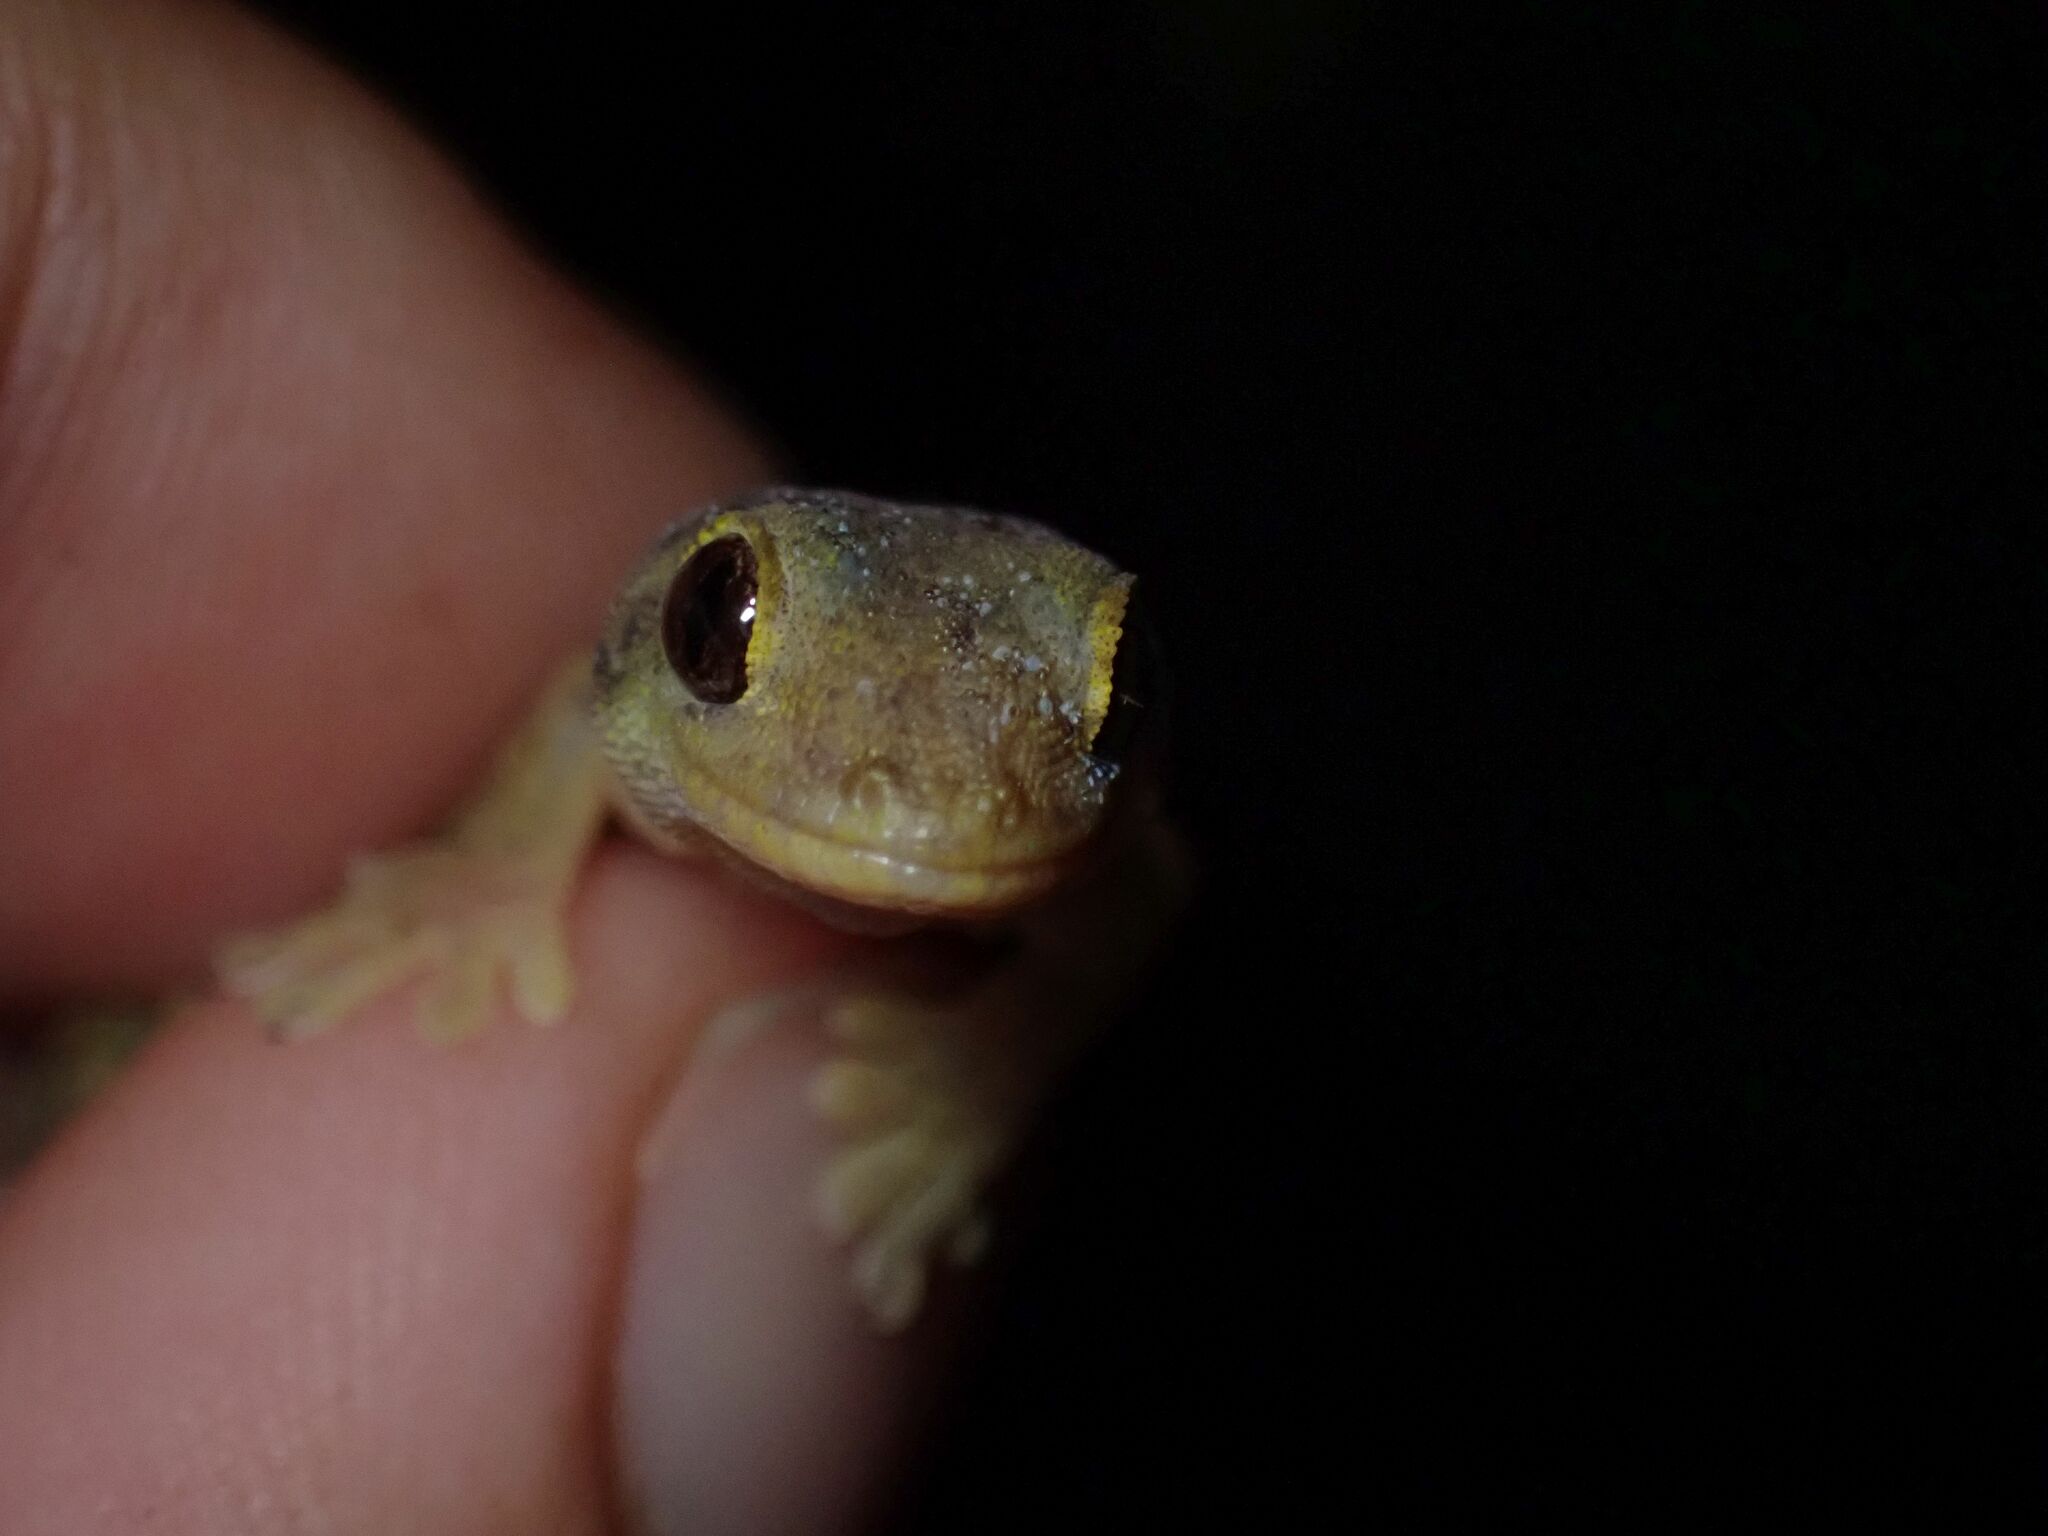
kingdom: Animalia
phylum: Chordata
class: Squamata
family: Gekkonidae
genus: Lepidodactylus
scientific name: Lepidodactylus vanuatuensis
